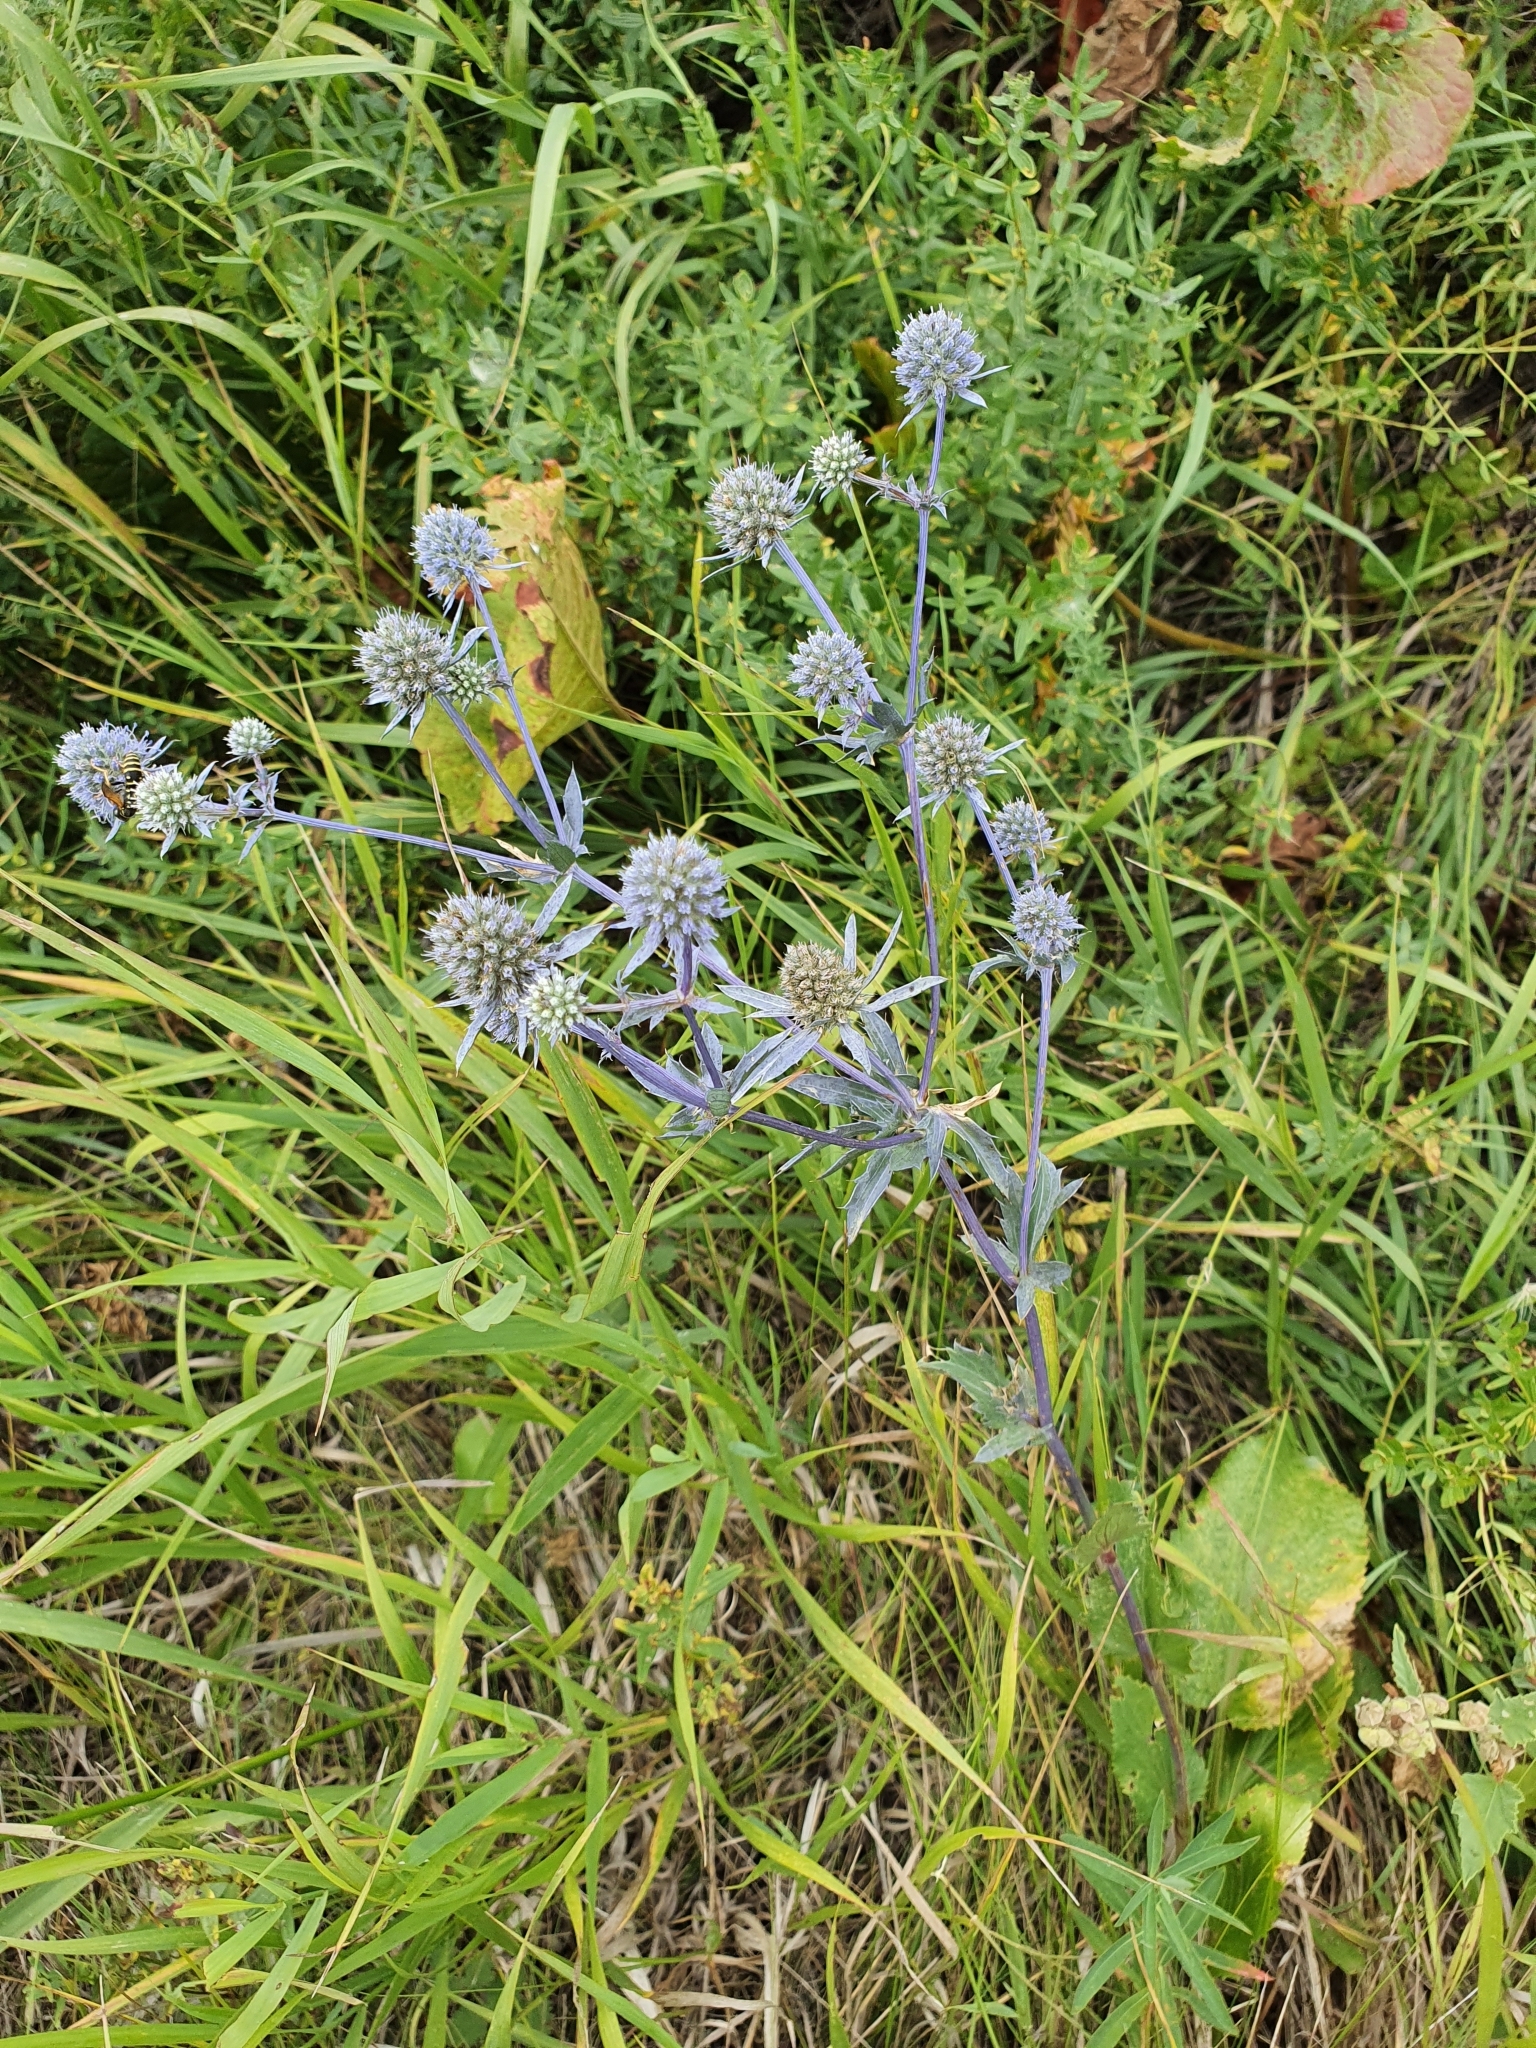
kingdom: Plantae
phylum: Tracheophyta
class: Magnoliopsida
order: Apiales
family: Apiaceae
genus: Eryngium
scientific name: Eryngium planum
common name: Blue eryngo
